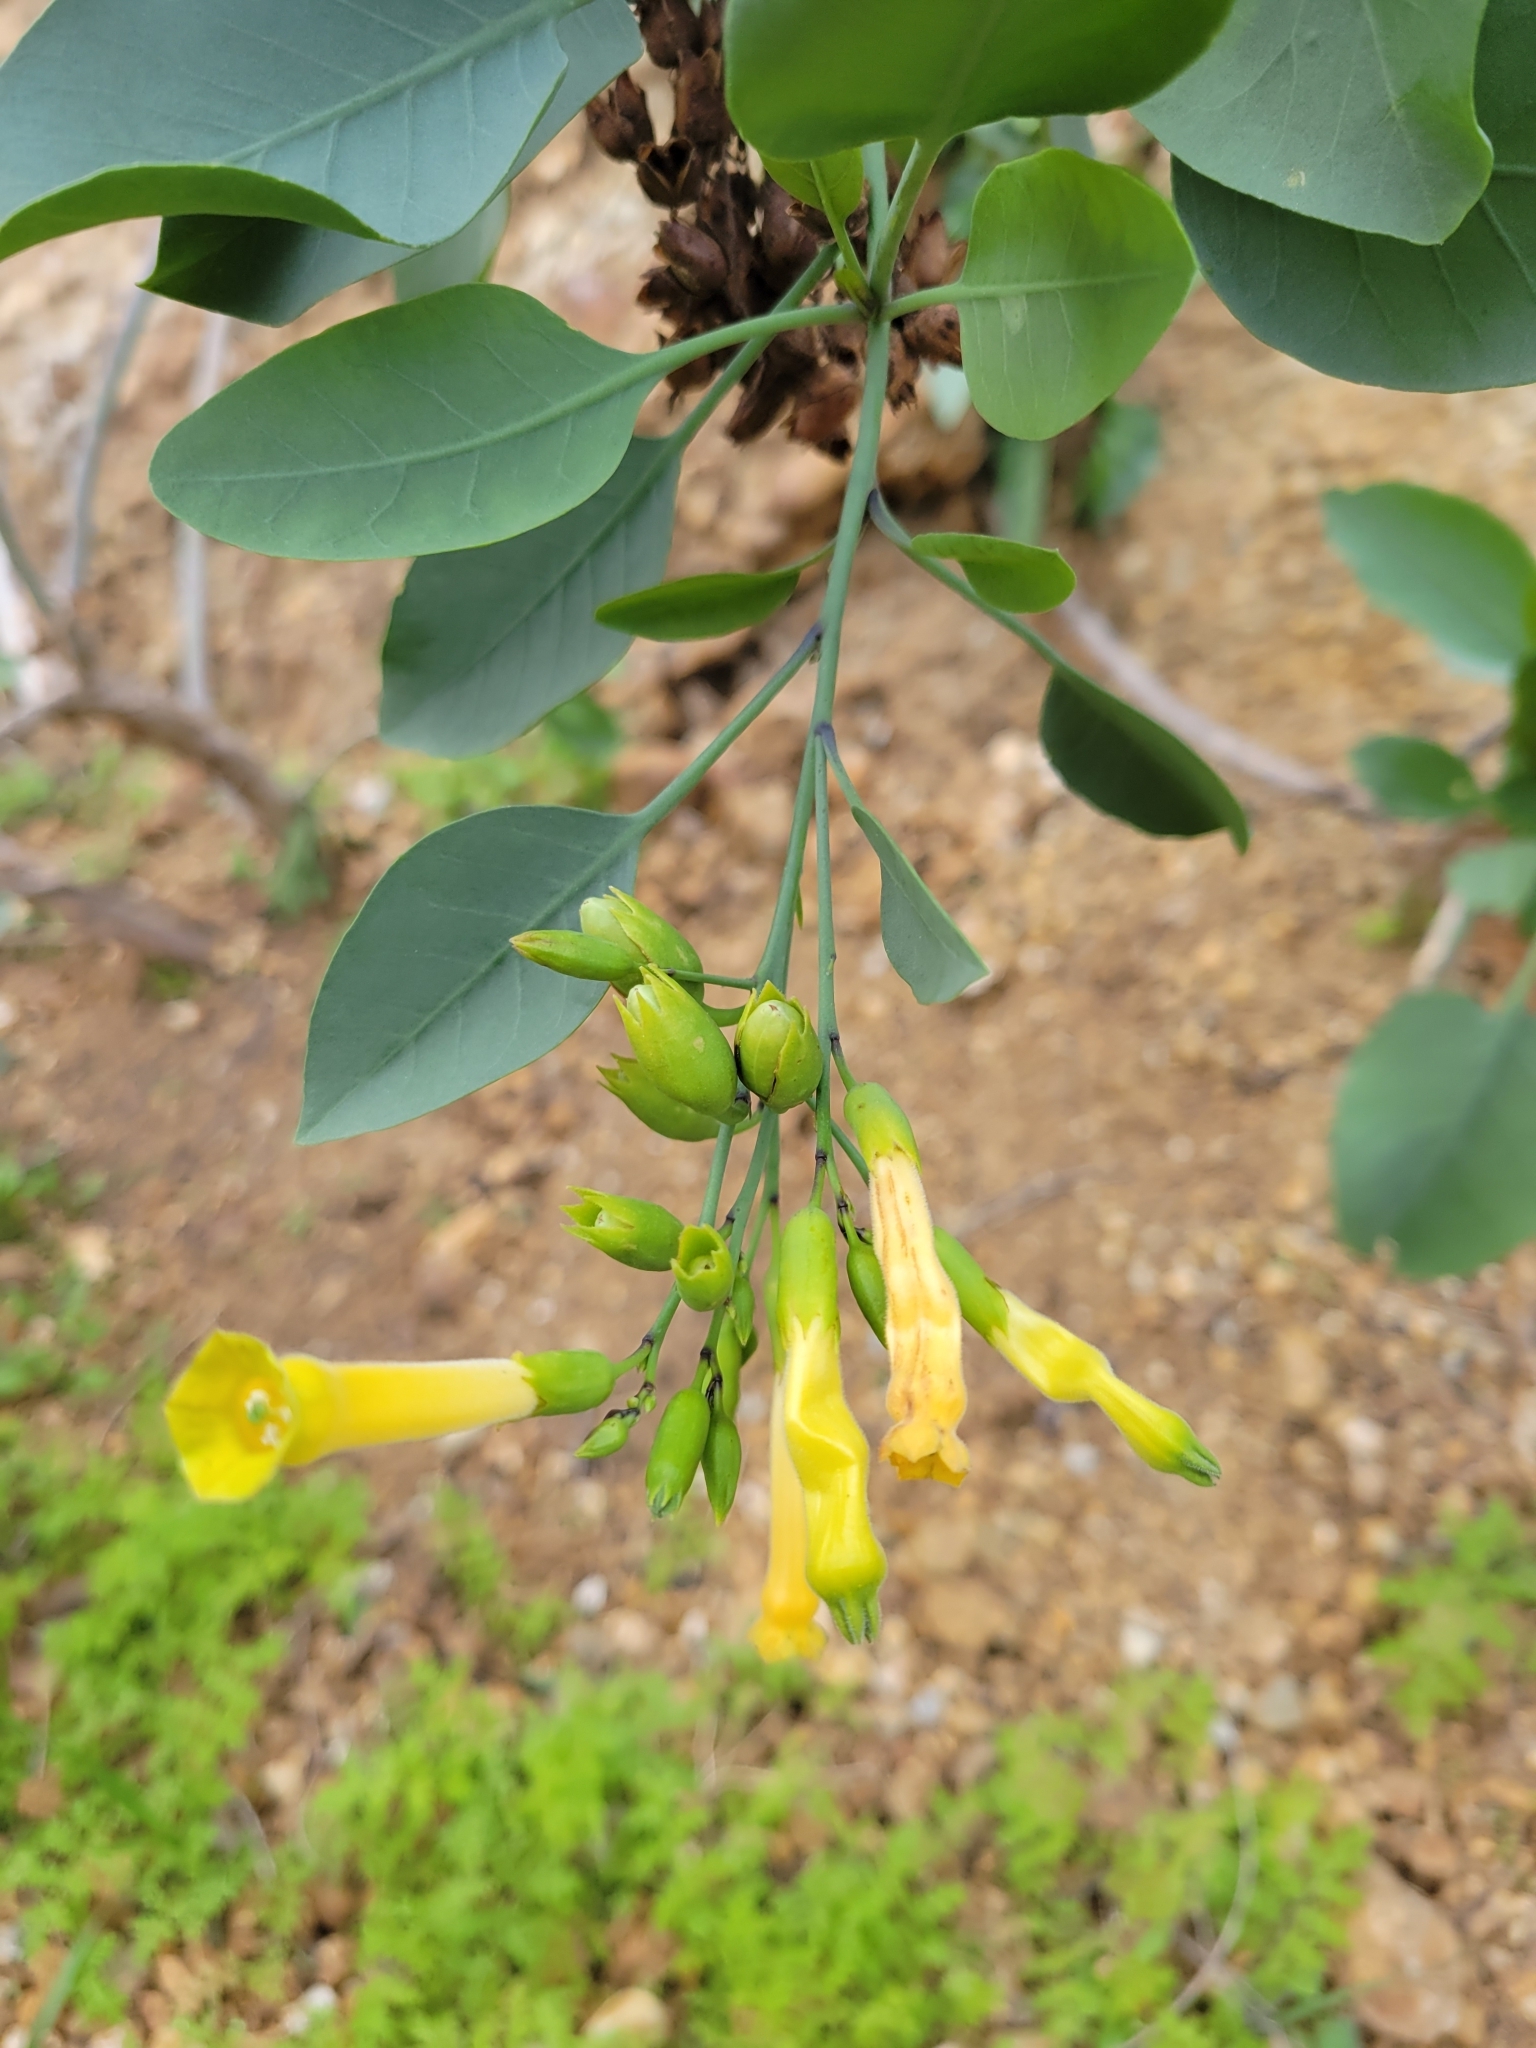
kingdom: Plantae
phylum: Tracheophyta
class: Magnoliopsida
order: Solanales
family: Solanaceae
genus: Nicotiana
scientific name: Nicotiana glauca
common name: Tree tobacco
